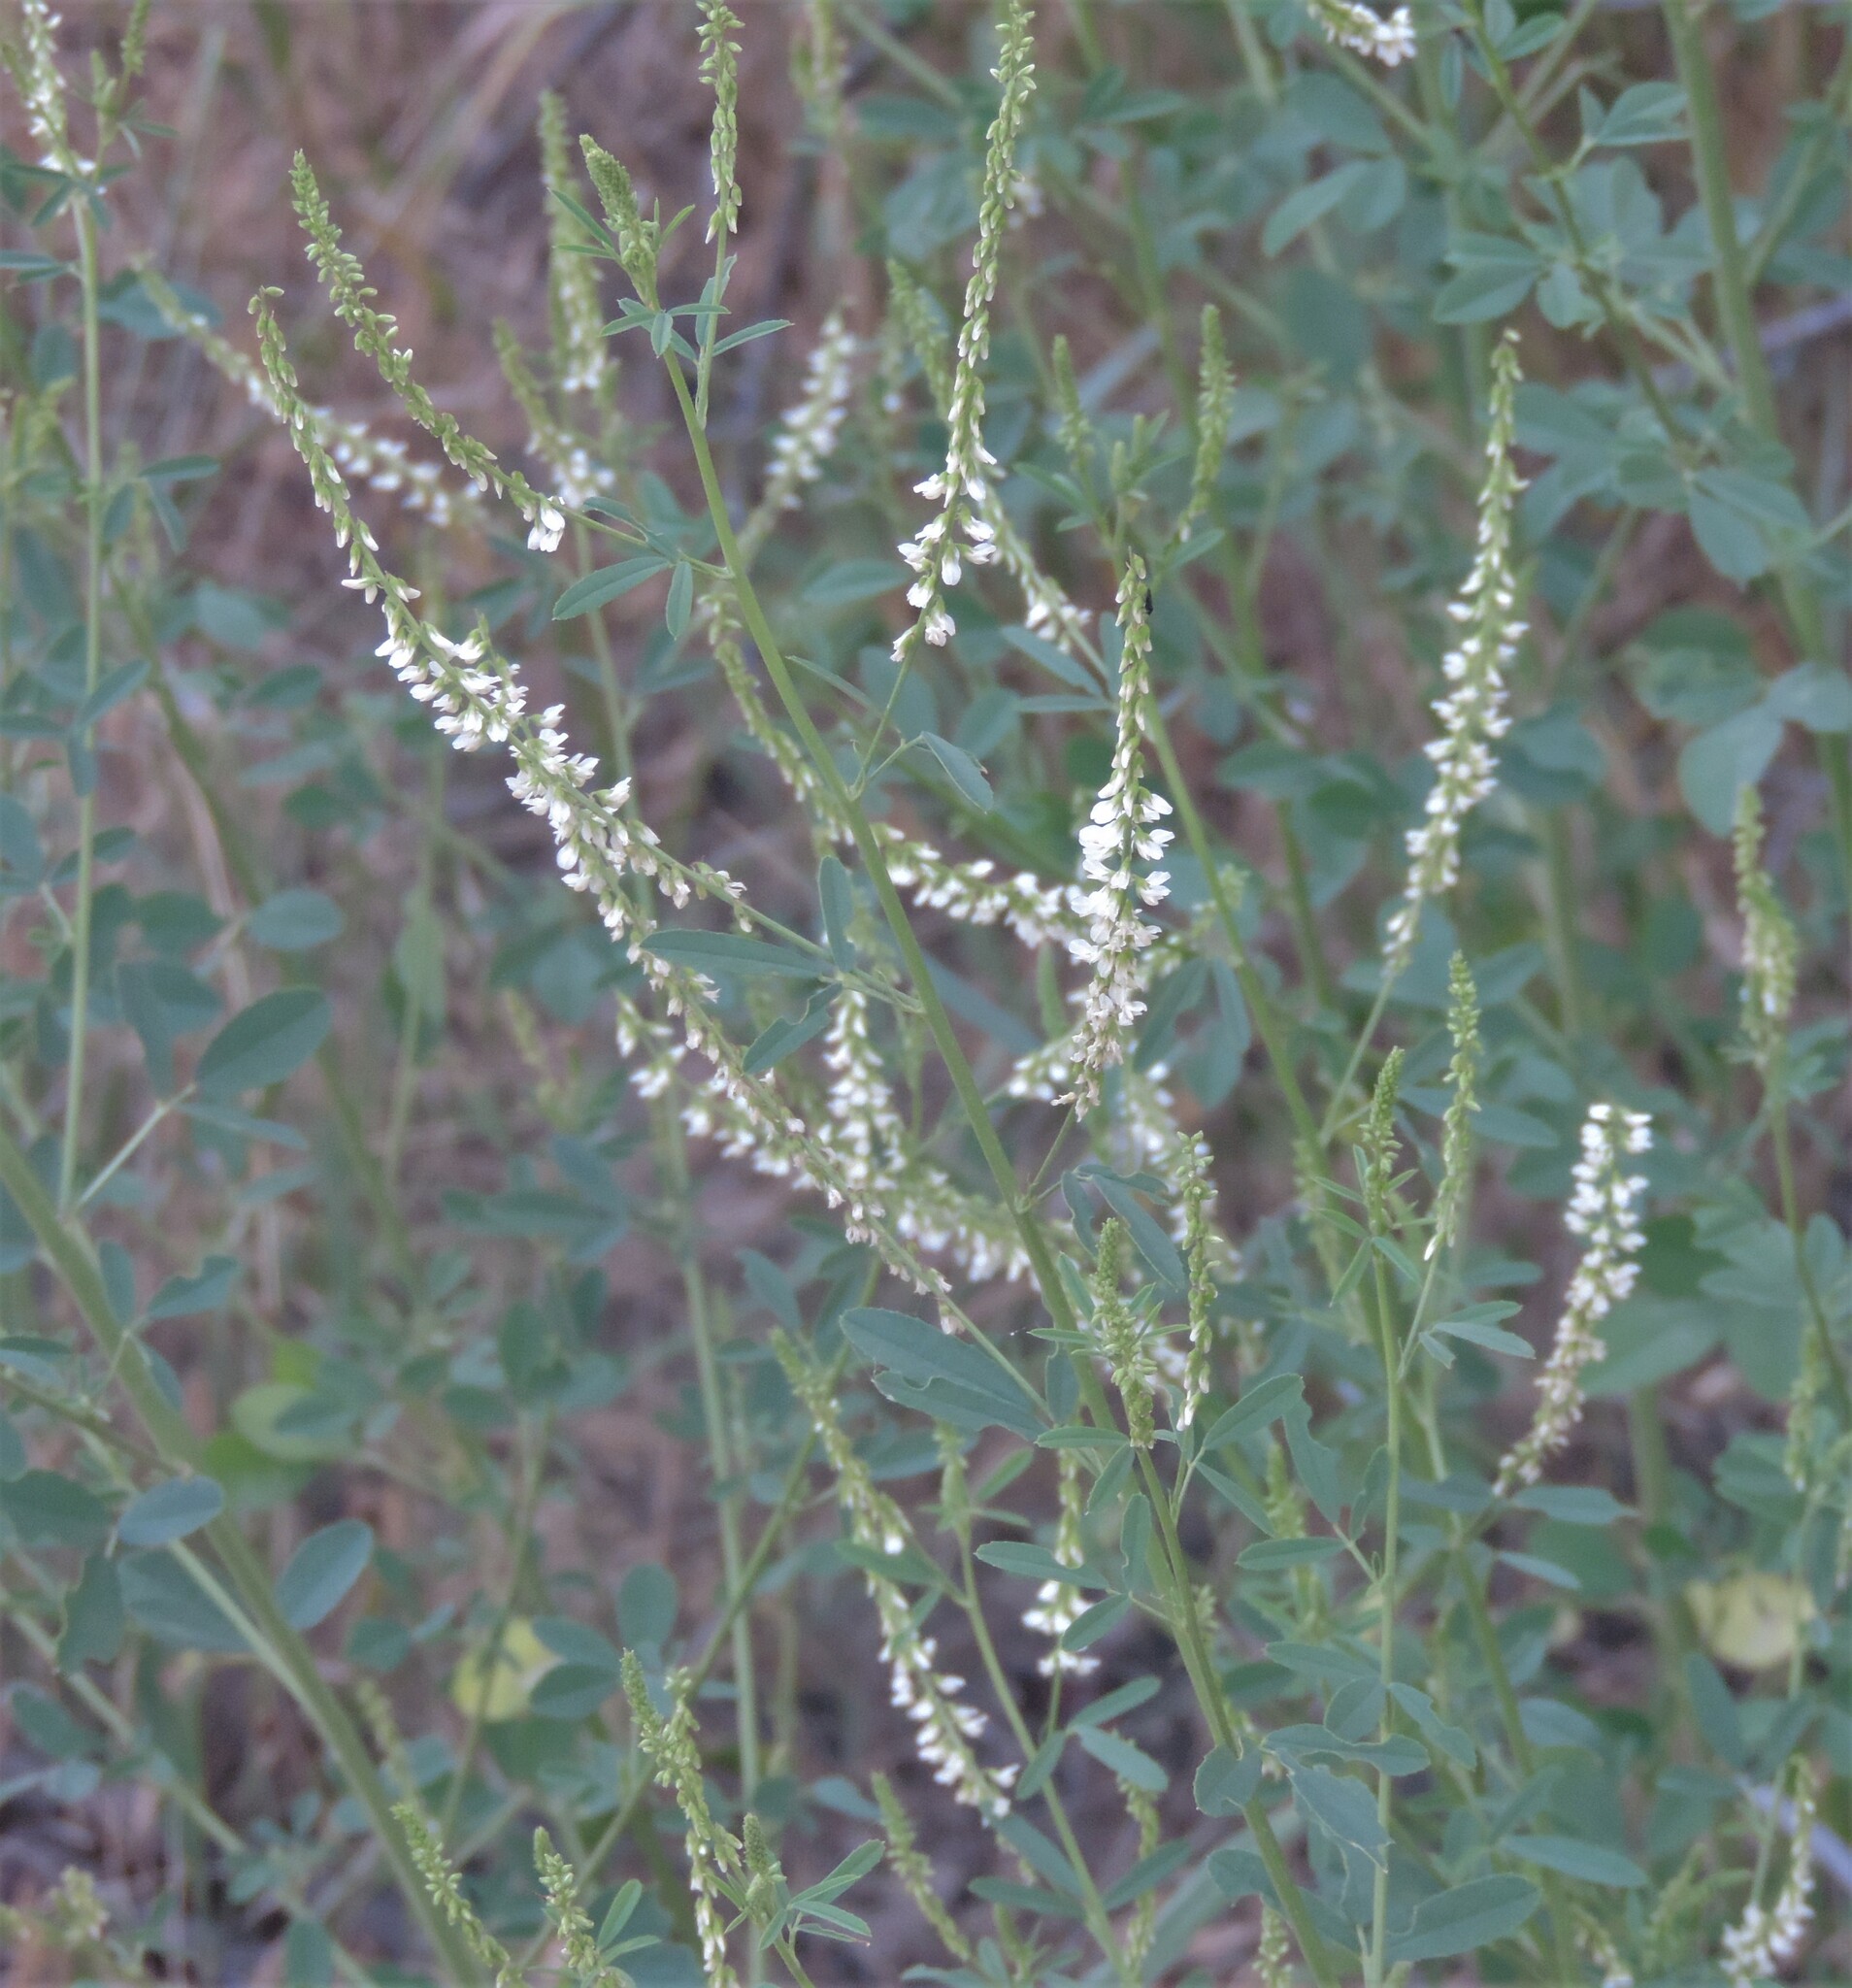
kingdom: Plantae
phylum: Tracheophyta
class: Magnoliopsida
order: Fabales
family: Fabaceae
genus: Melilotus
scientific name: Melilotus albus
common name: White melilot
